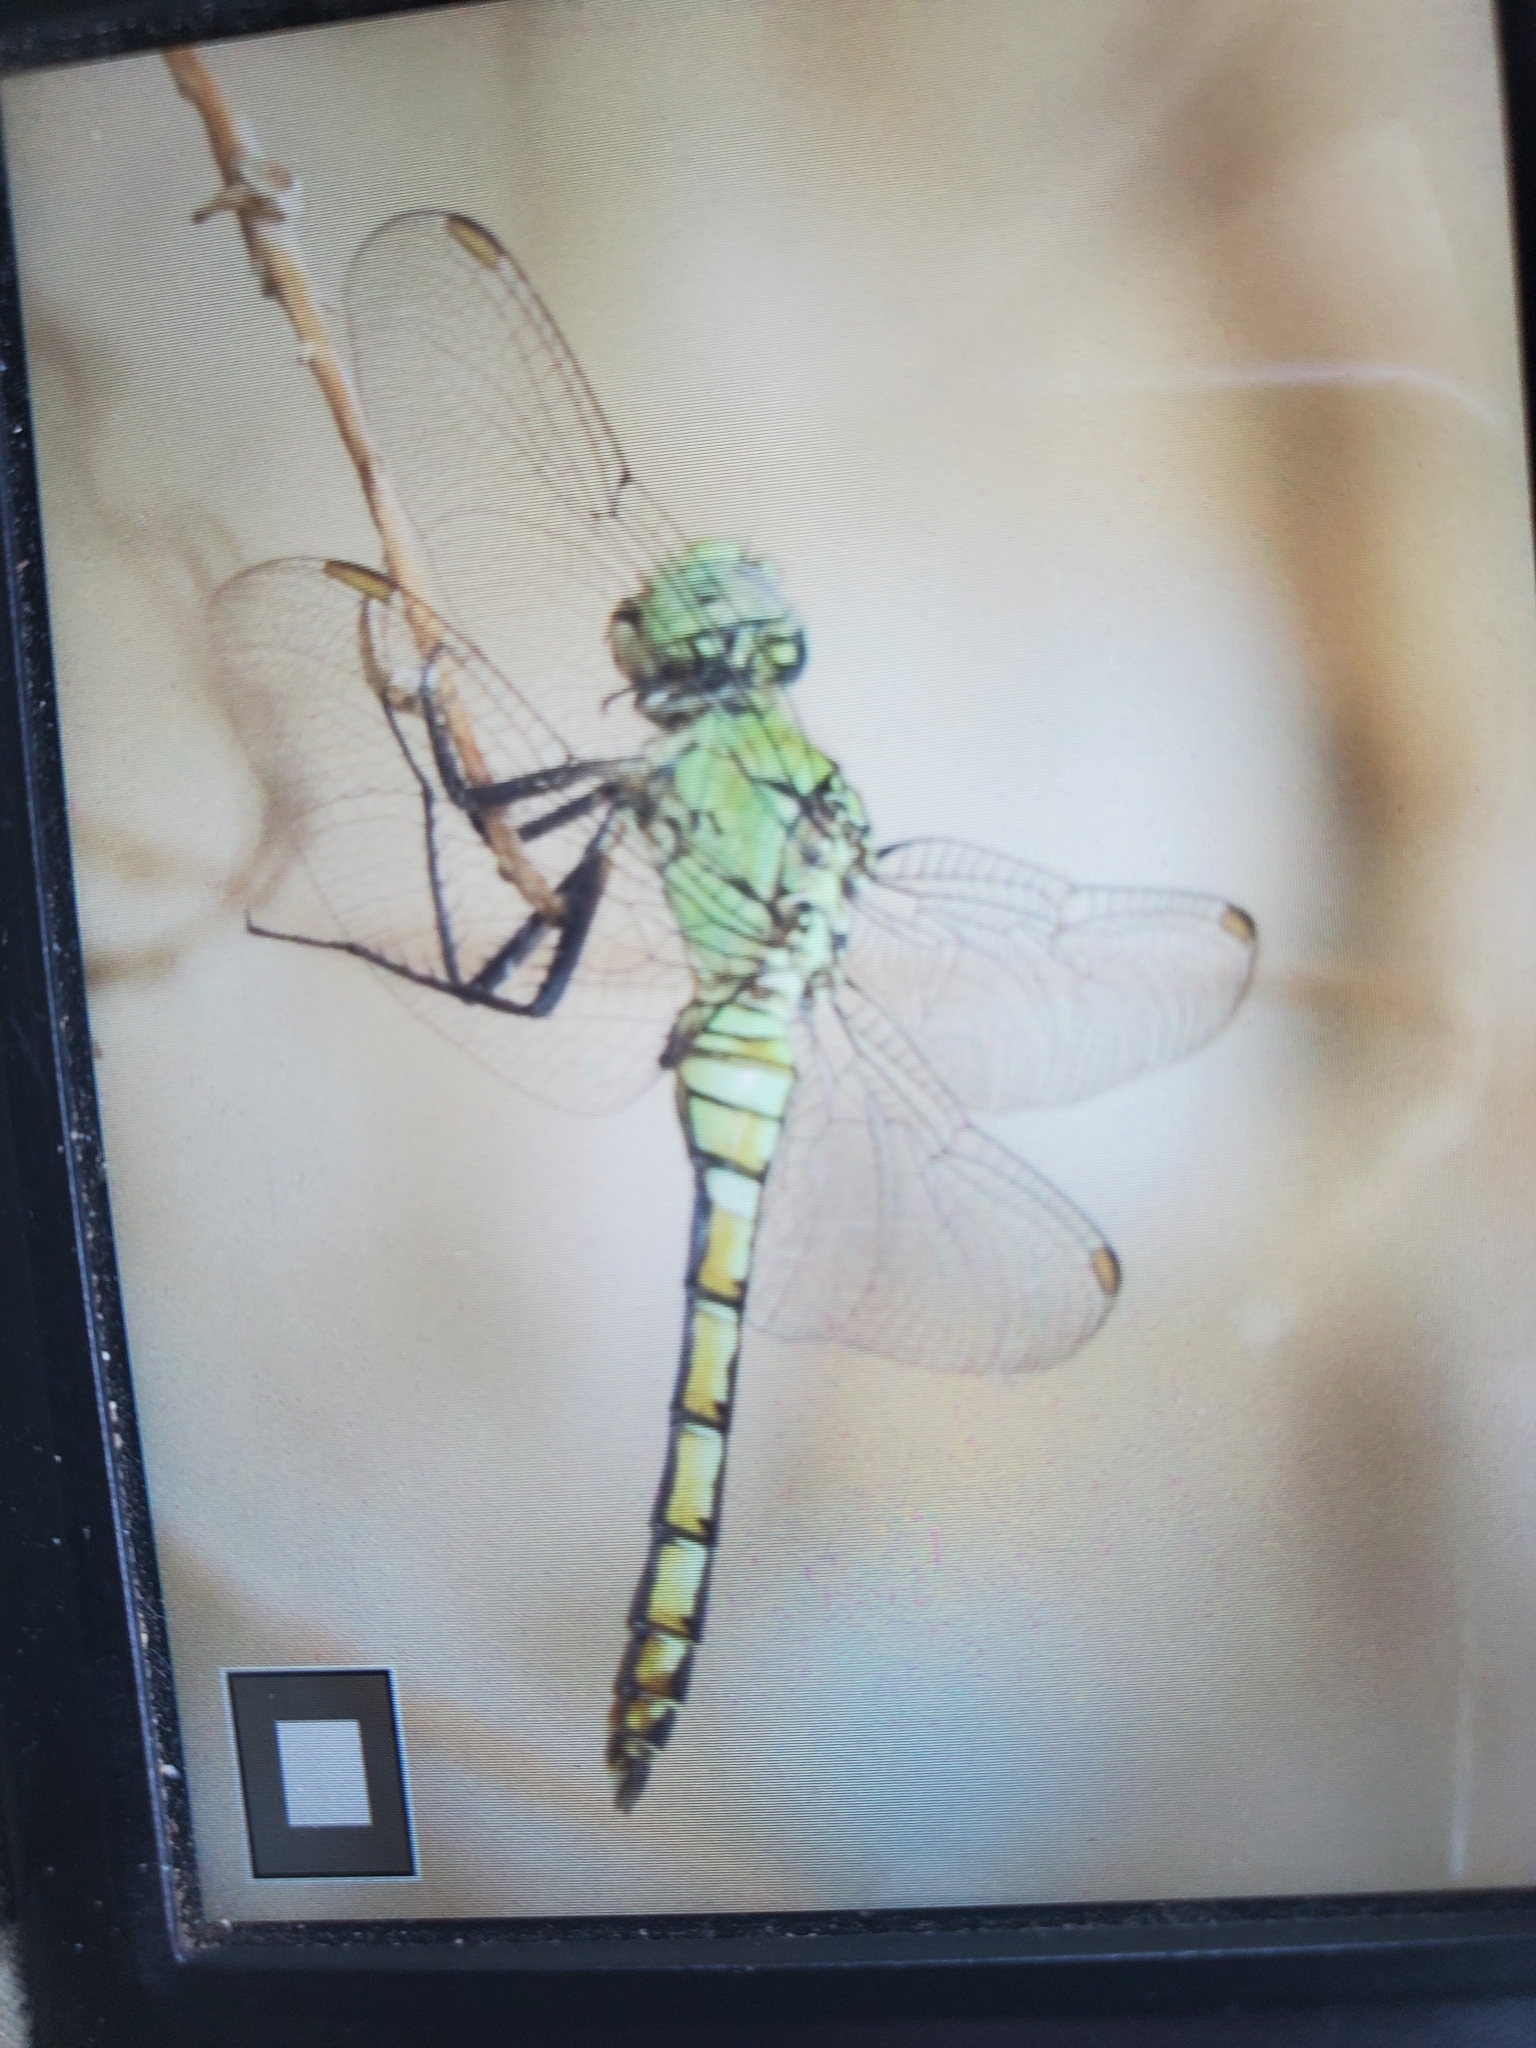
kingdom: Animalia
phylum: Arthropoda
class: Insecta
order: Odonata
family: Libellulidae
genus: Erythemis
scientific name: Erythemis collocata
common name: Western pondhawk
